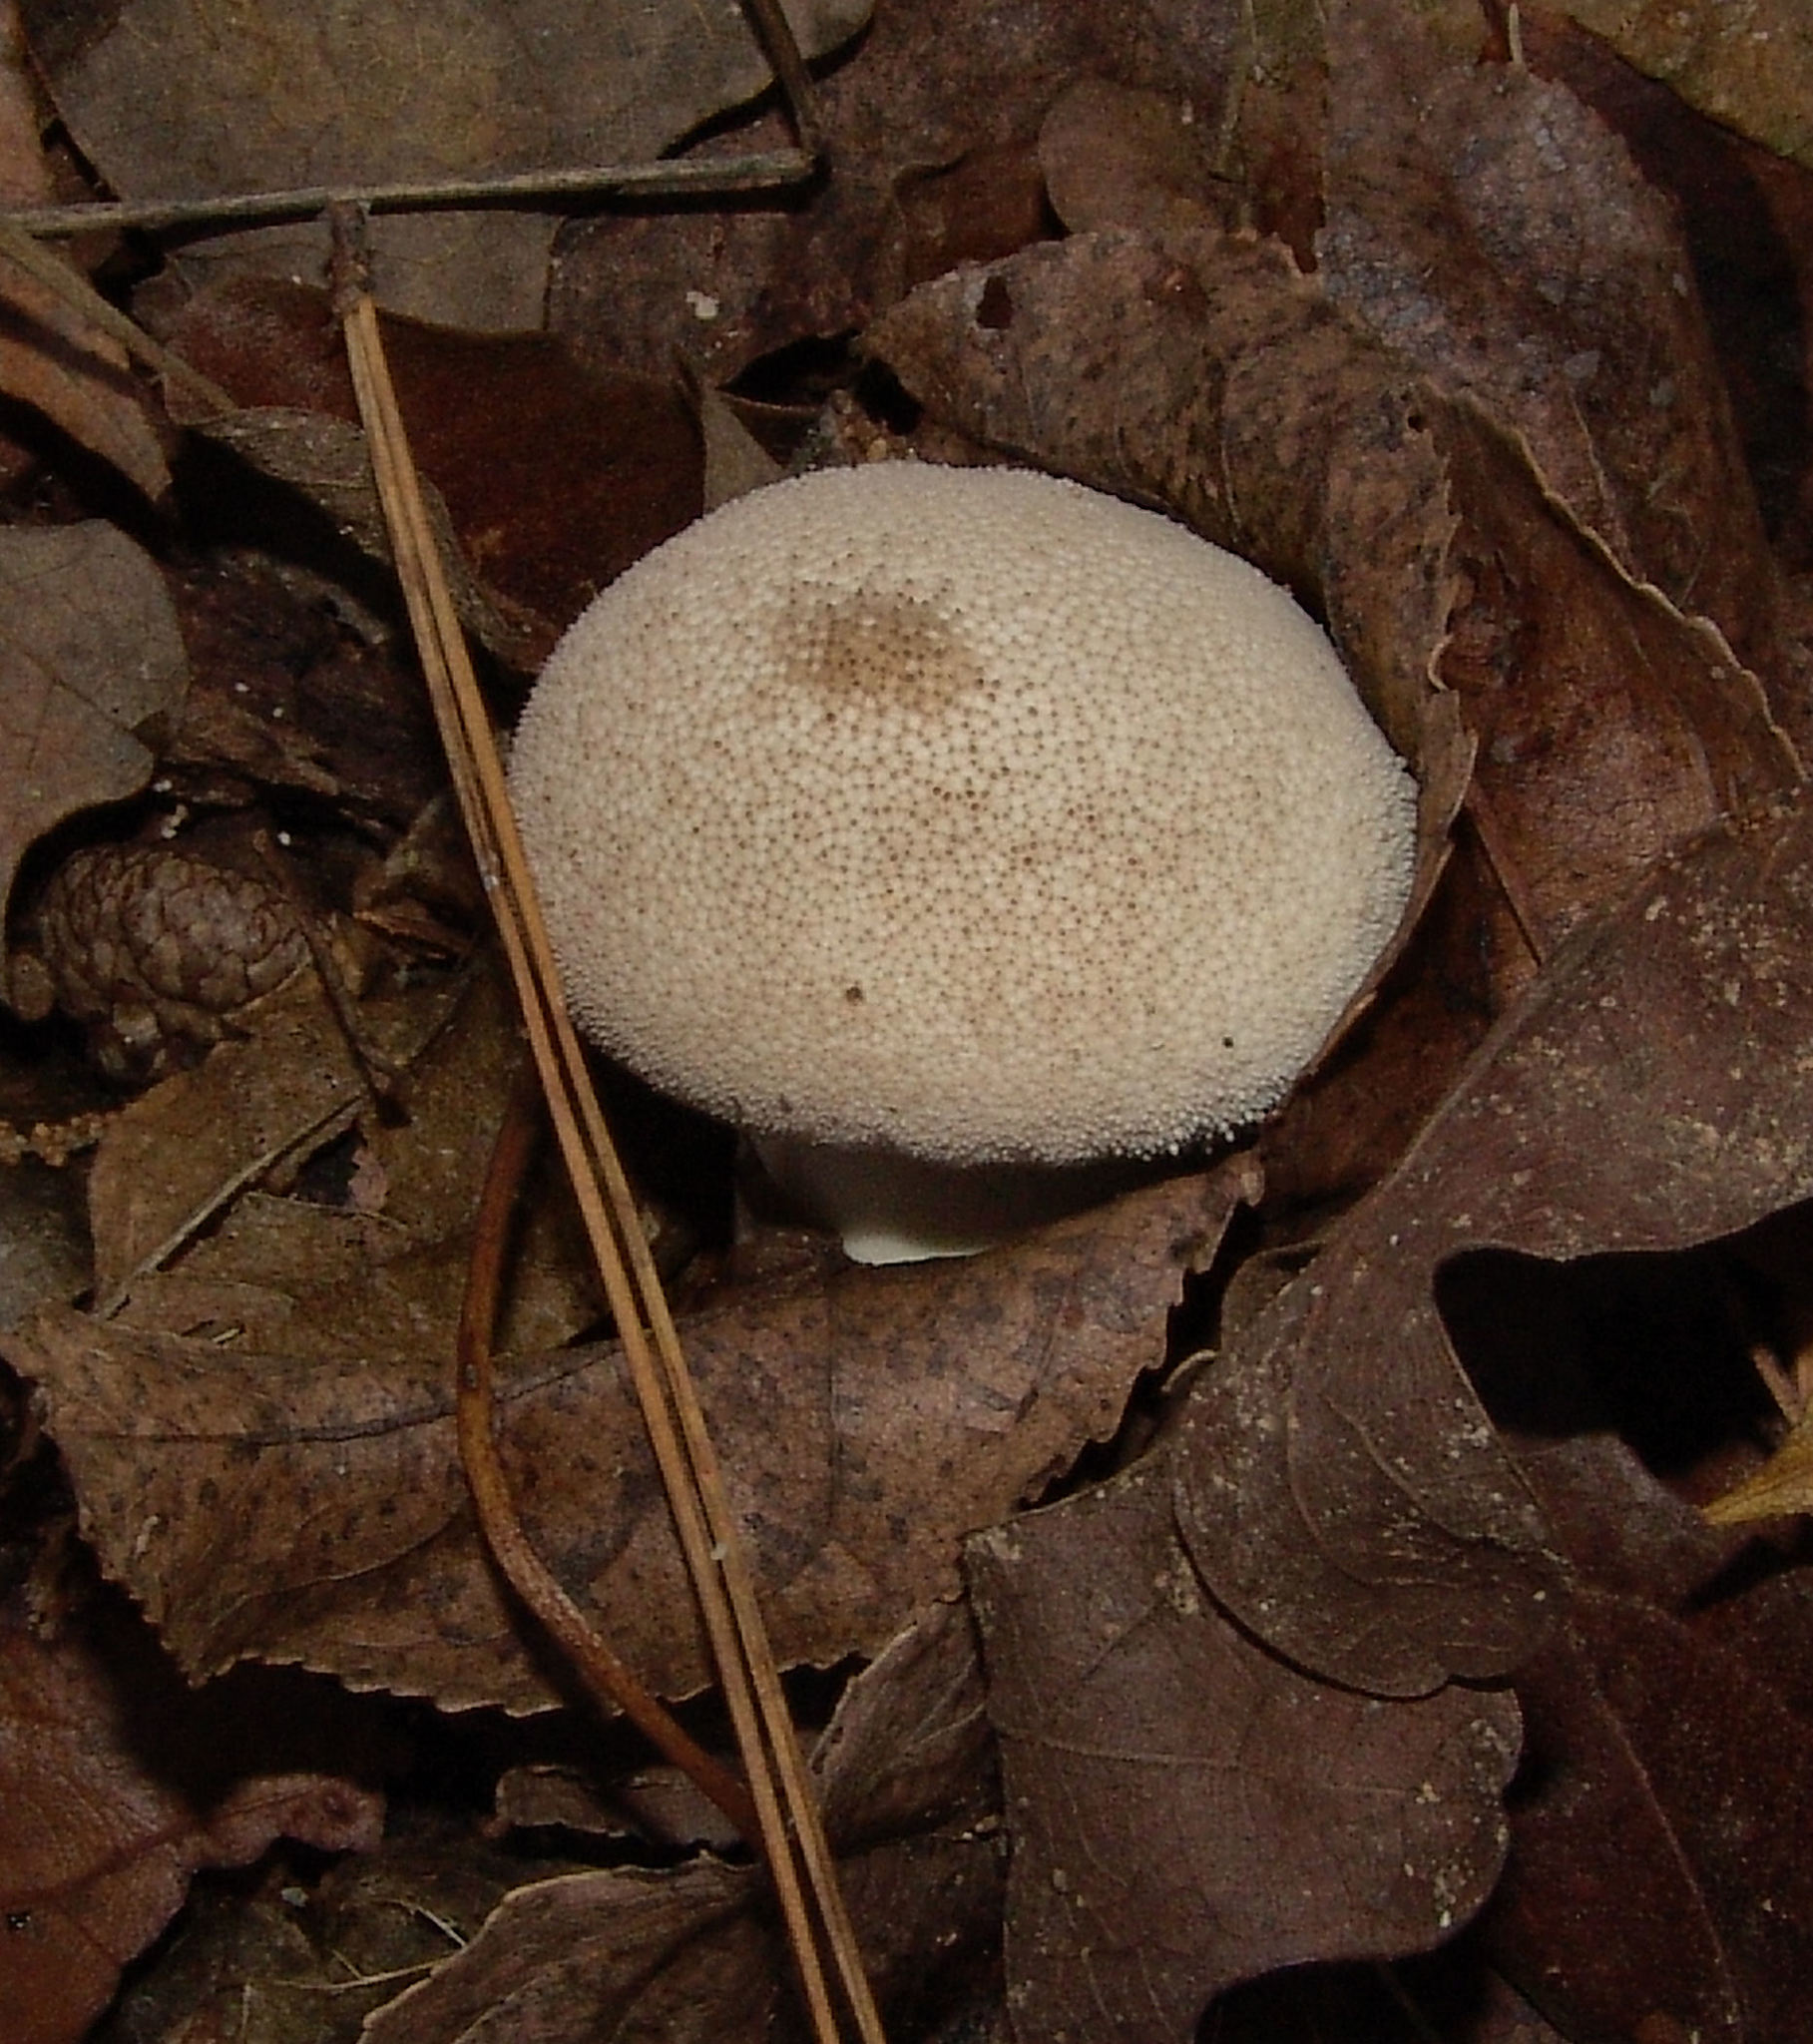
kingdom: Fungi
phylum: Basidiomycota
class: Agaricomycetes
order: Agaricales
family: Lycoperdaceae
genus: Lycoperdon
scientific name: Lycoperdon perlatum
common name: Common puffball
